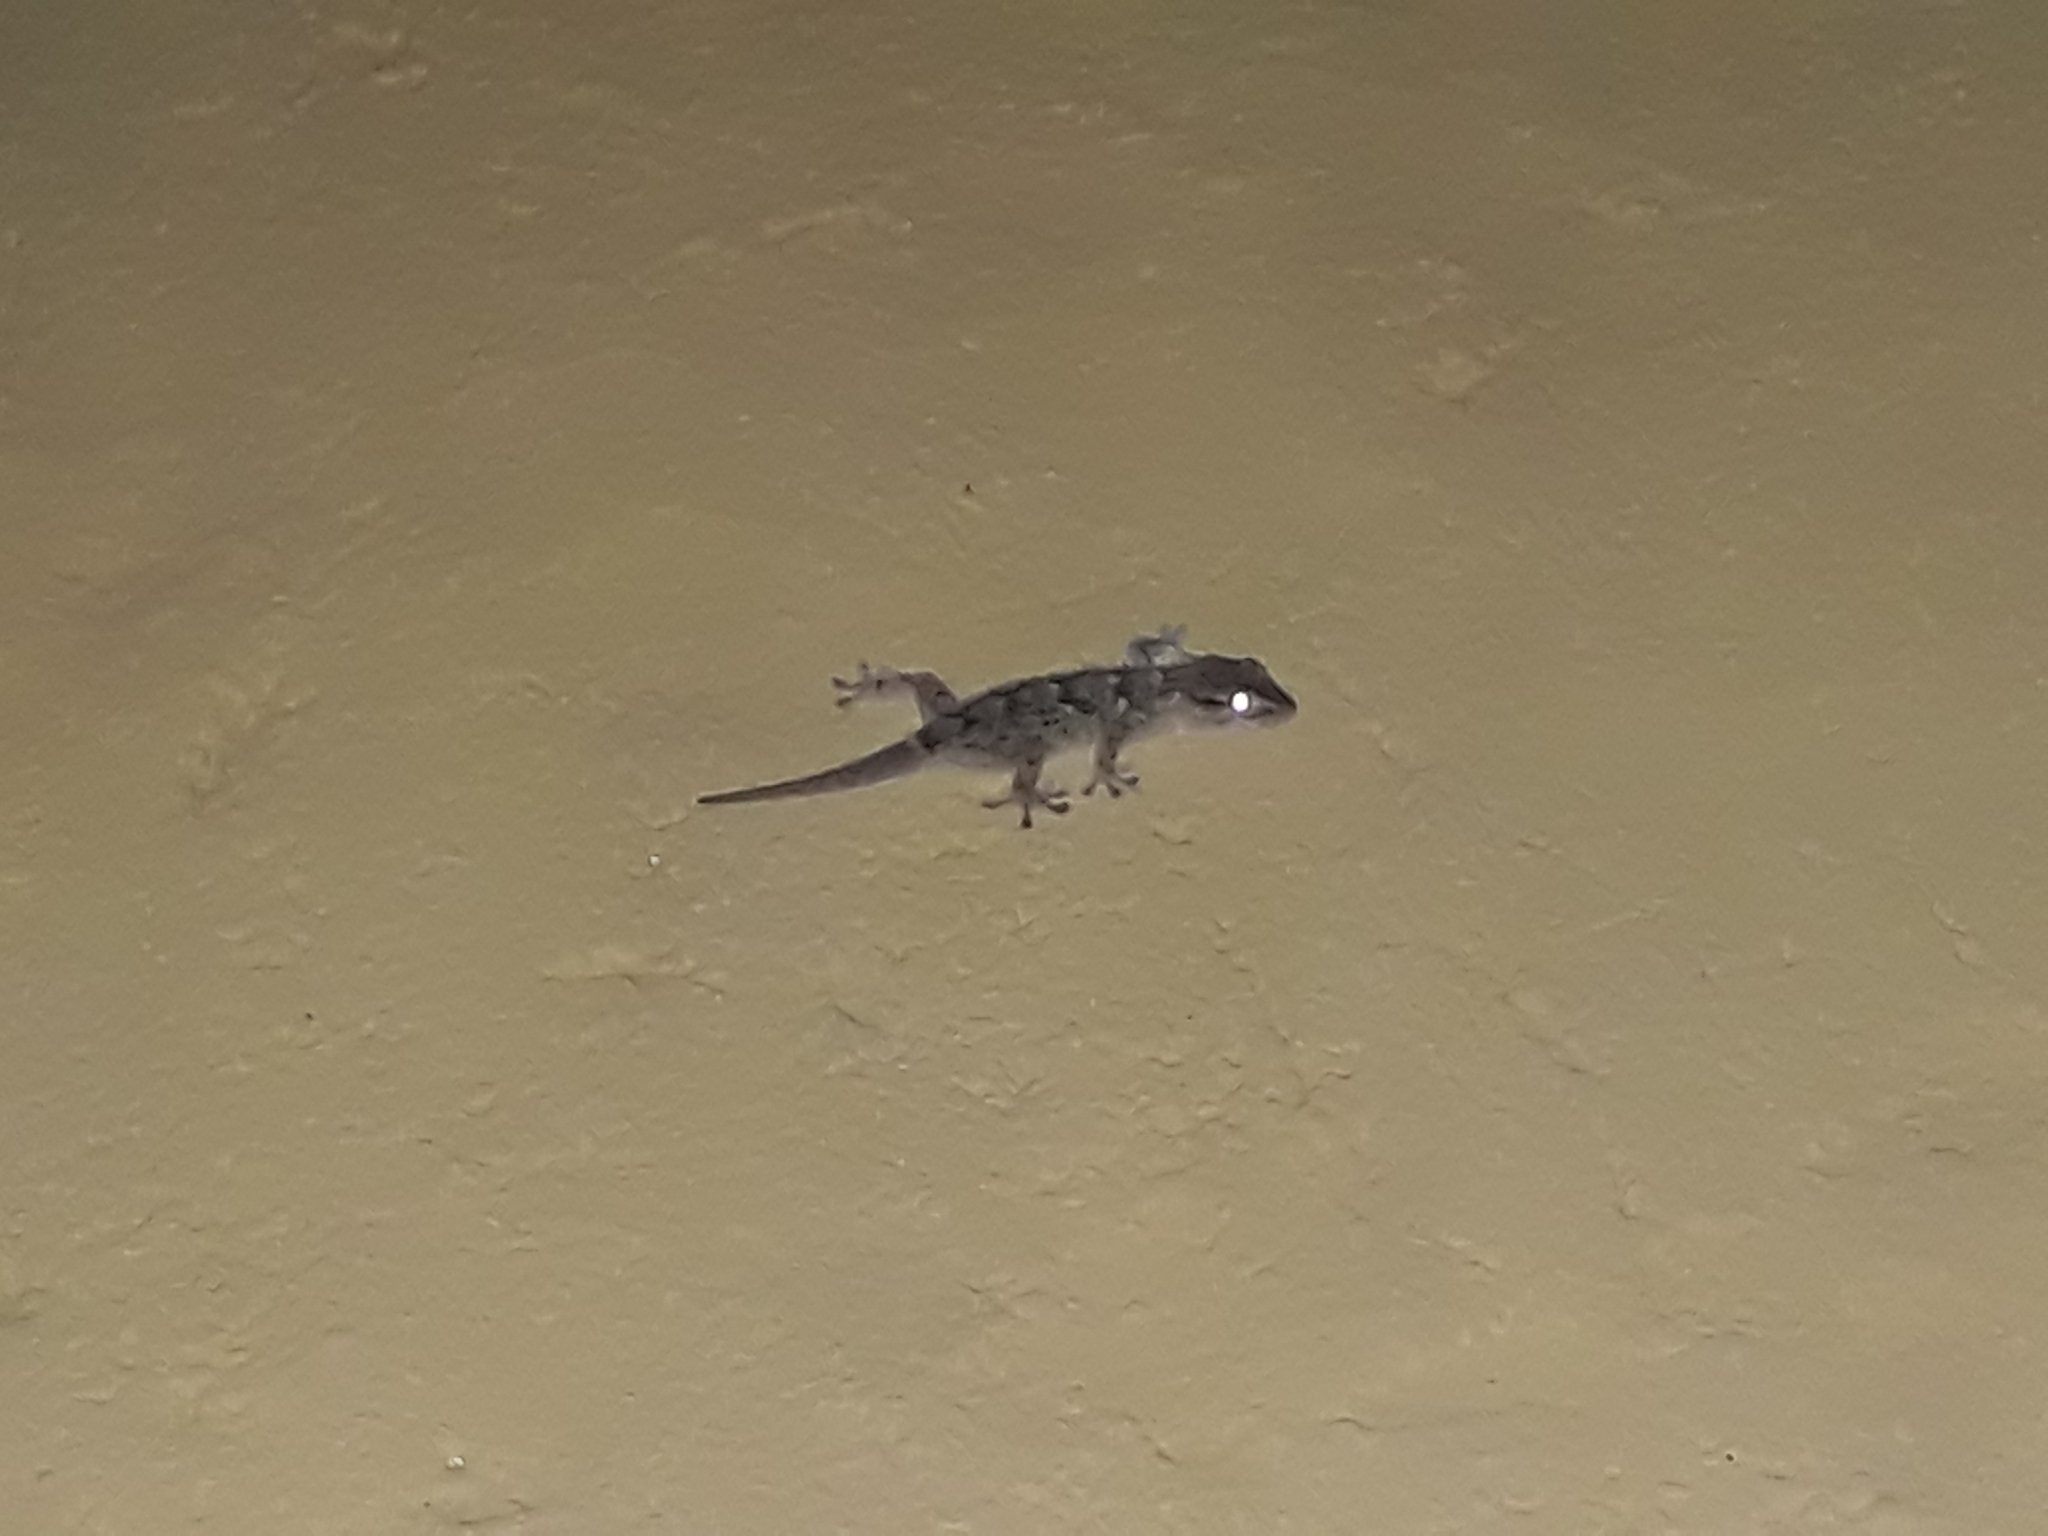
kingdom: Animalia
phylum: Chordata
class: Squamata
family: Phyllodactylidae
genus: Tarentola
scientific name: Tarentola mauritanica
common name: Moorish gecko
